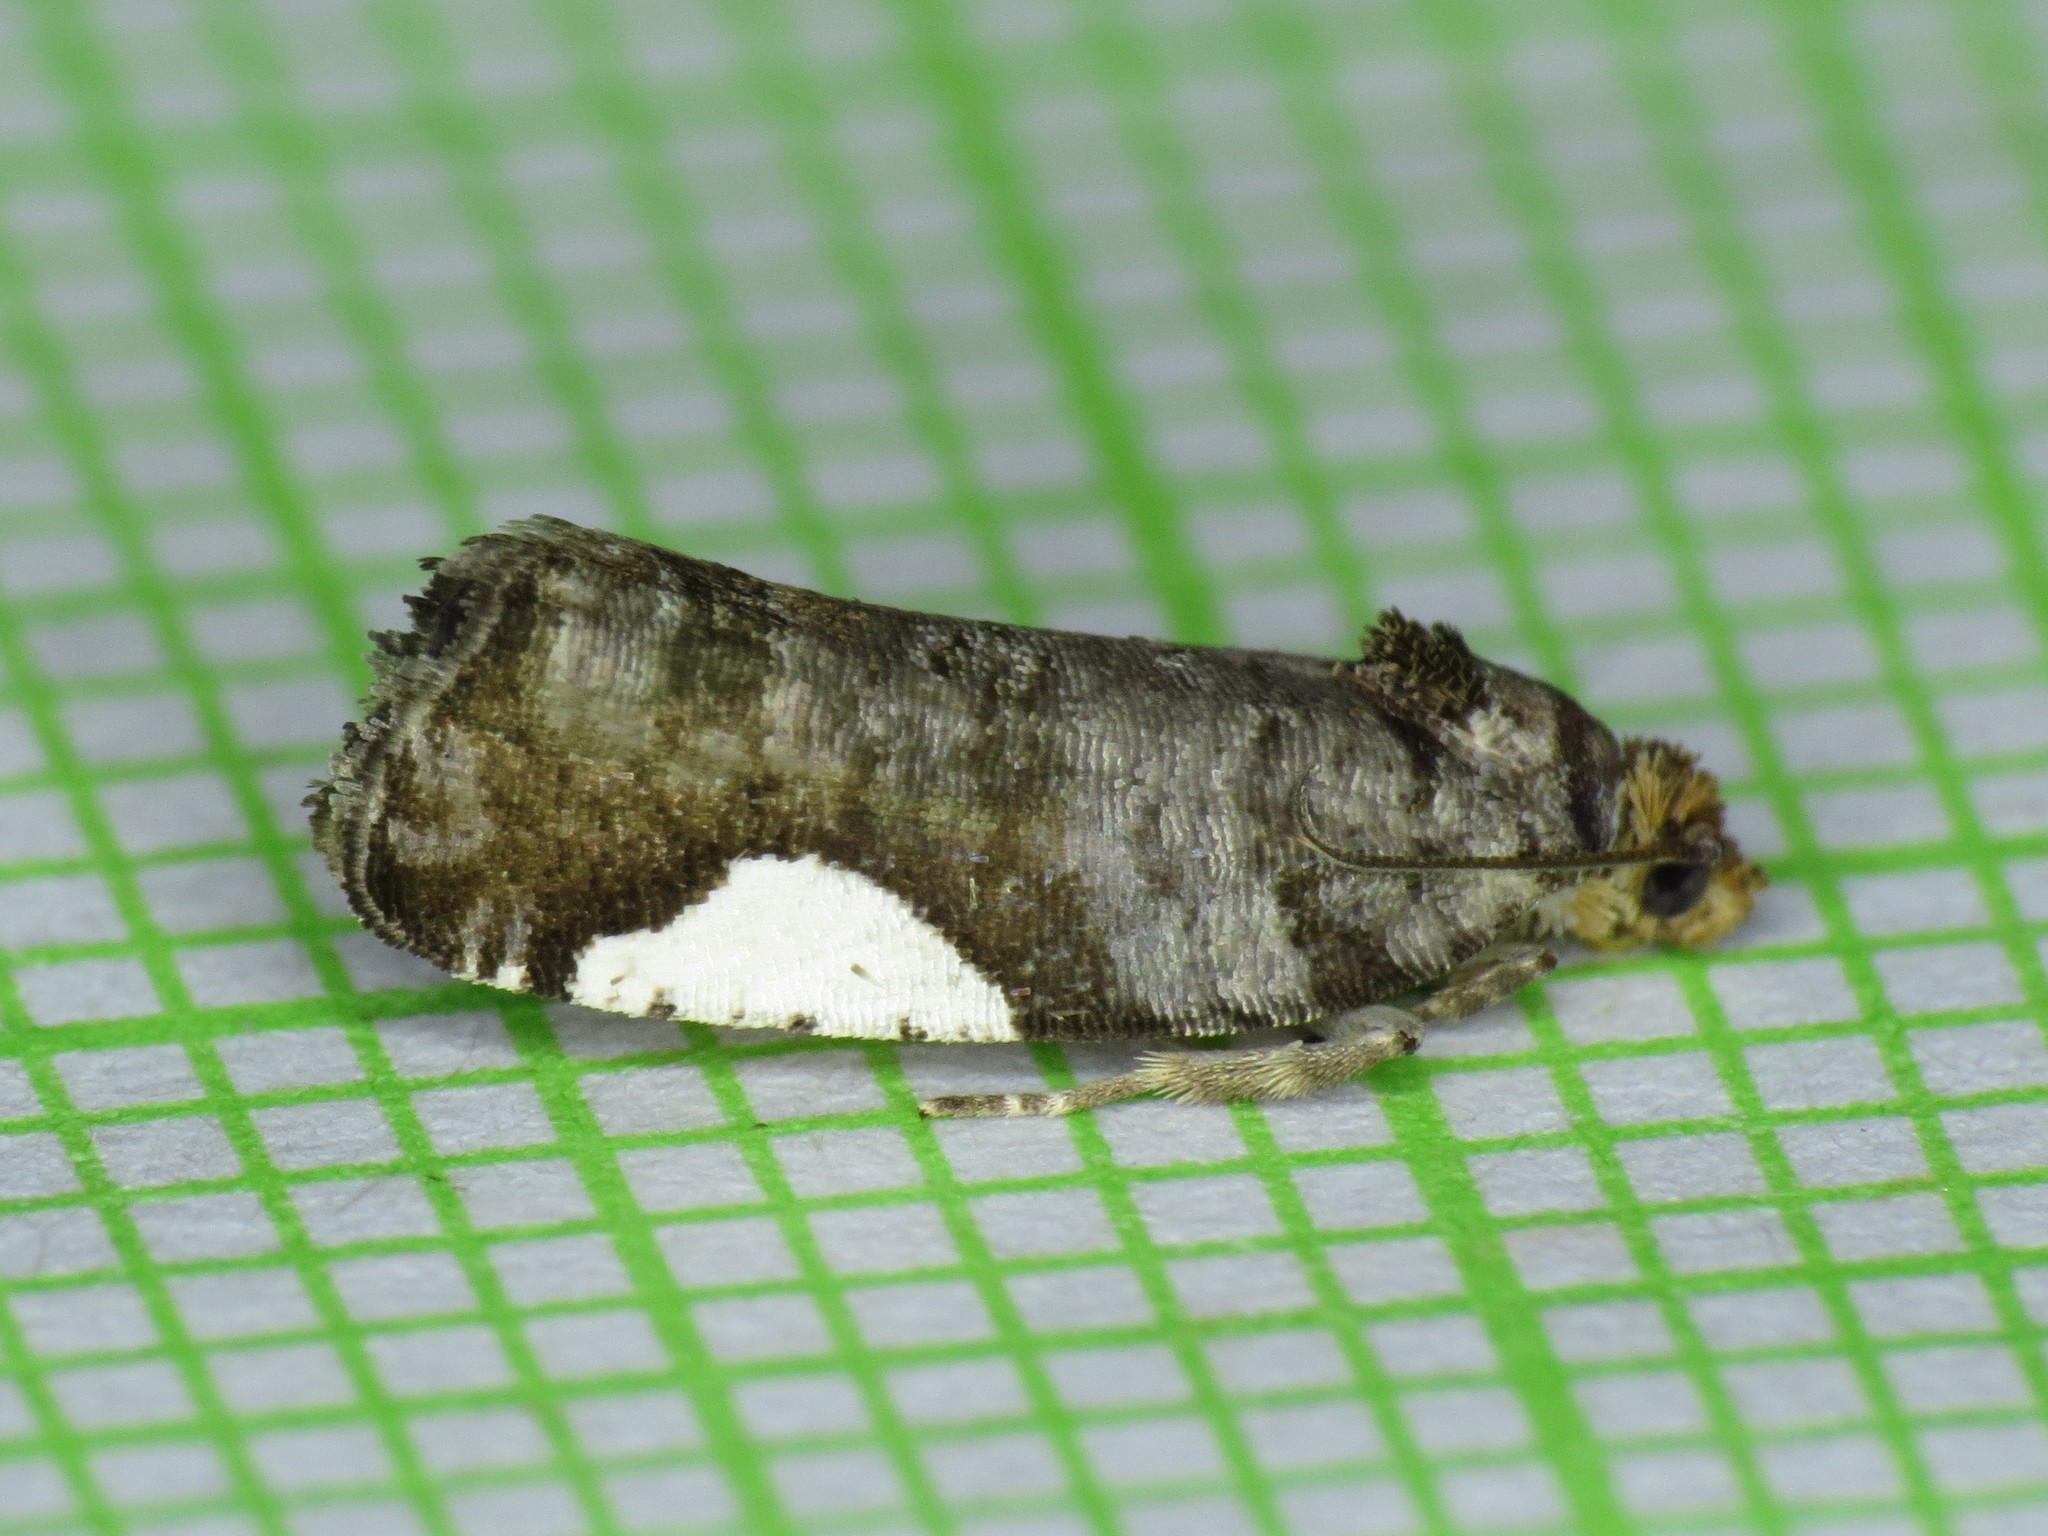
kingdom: Animalia
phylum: Arthropoda
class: Insecta
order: Lepidoptera
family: Tortricidae
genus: Hedya
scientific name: Hedya chionosema
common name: White-spotted hedya moth
